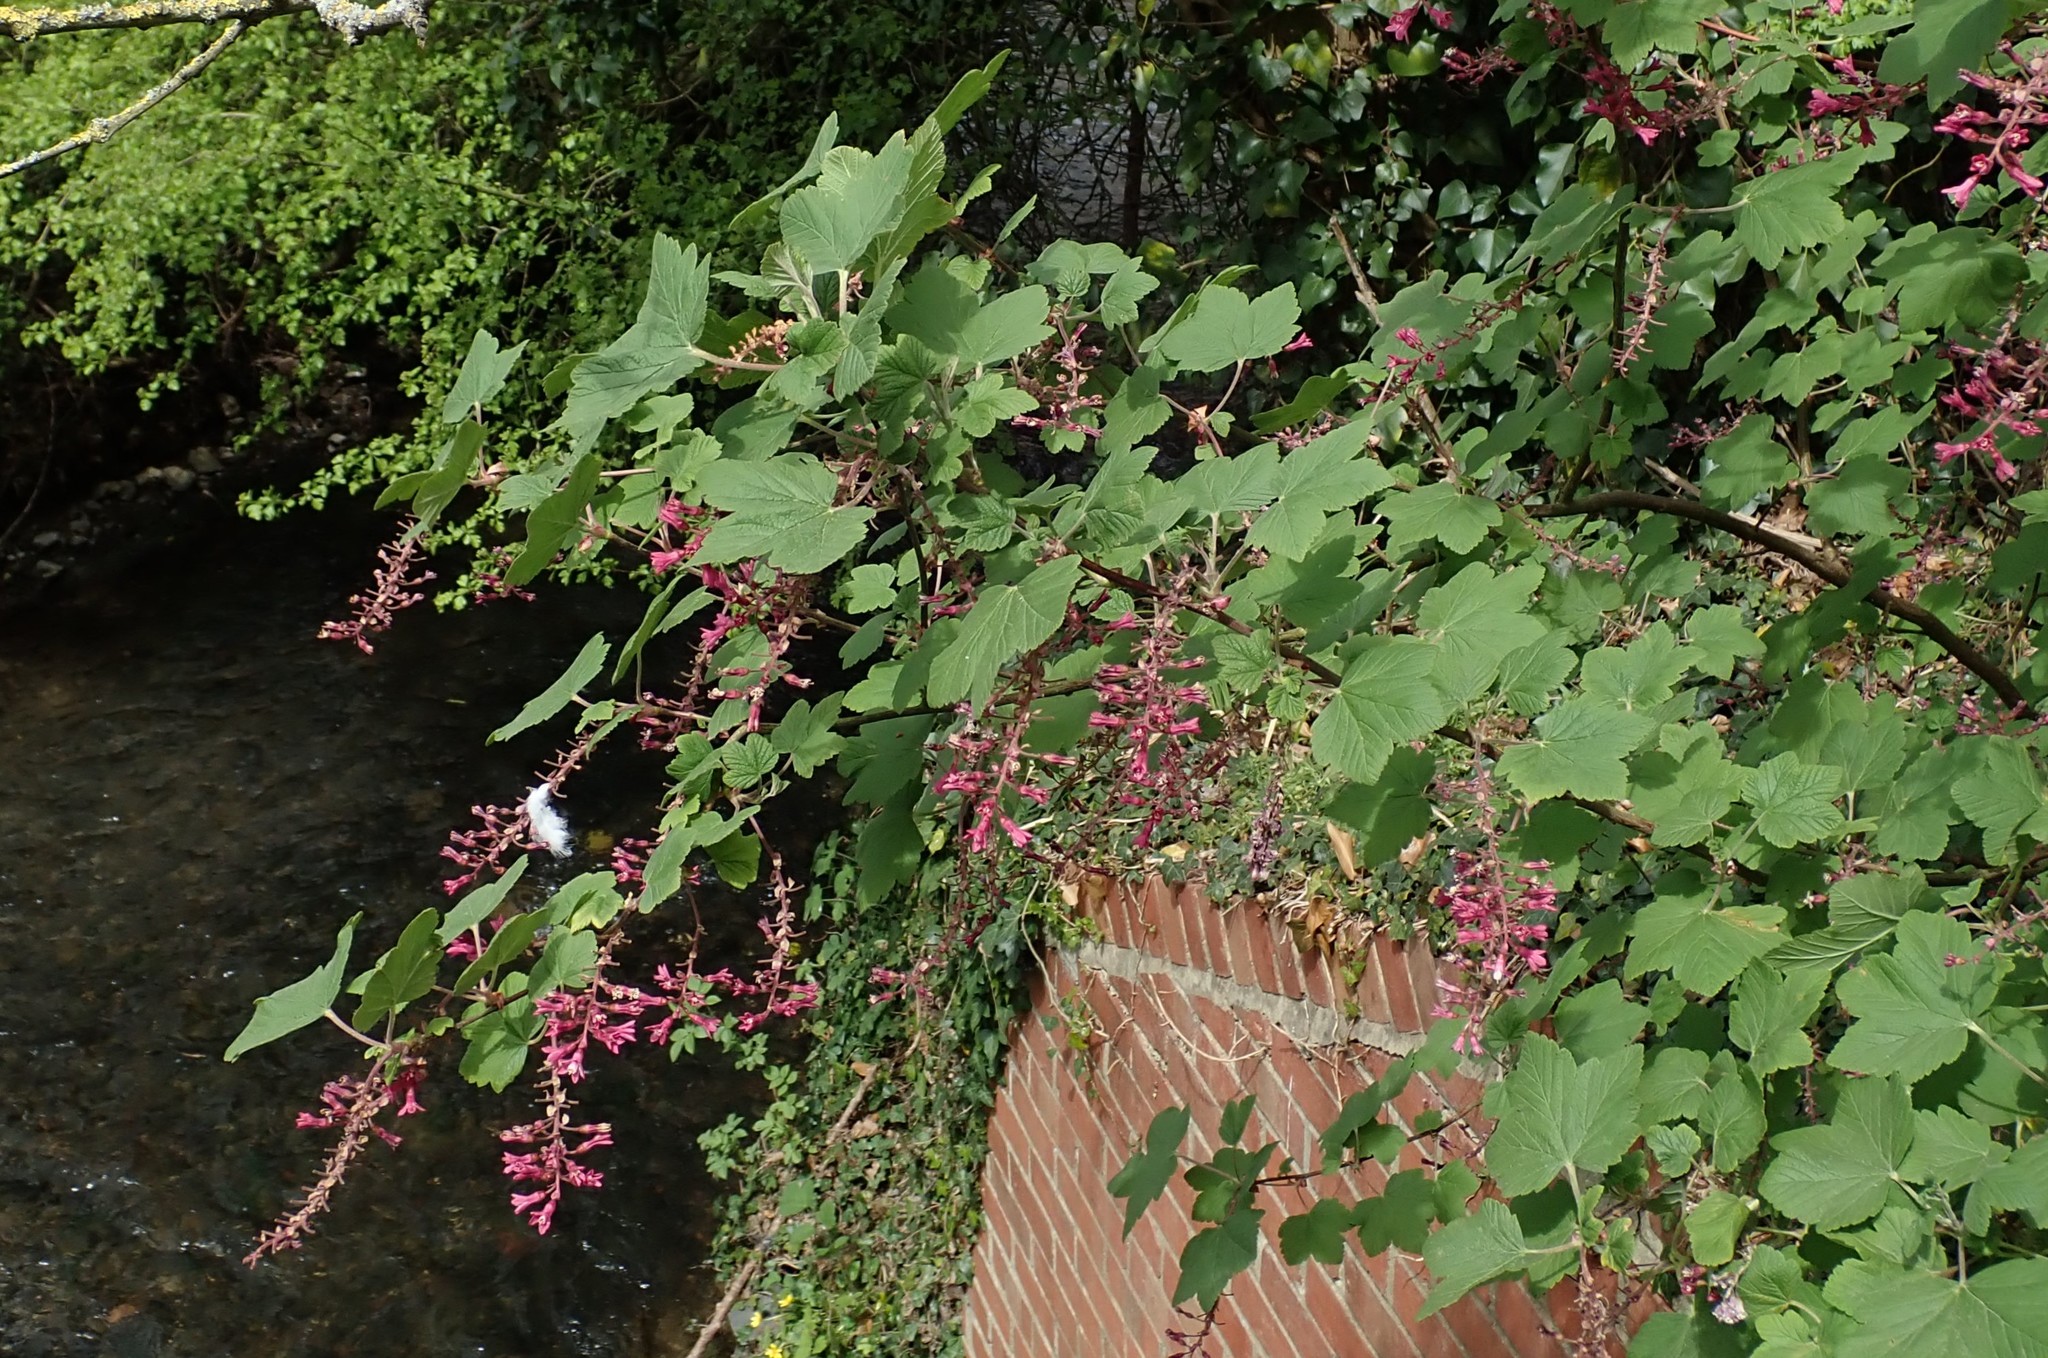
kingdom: Plantae
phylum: Tracheophyta
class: Magnoliopsida
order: Saxifragales
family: Grossulariaceae
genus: Ribes
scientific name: Ribes sanguineum
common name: Flowering currant
